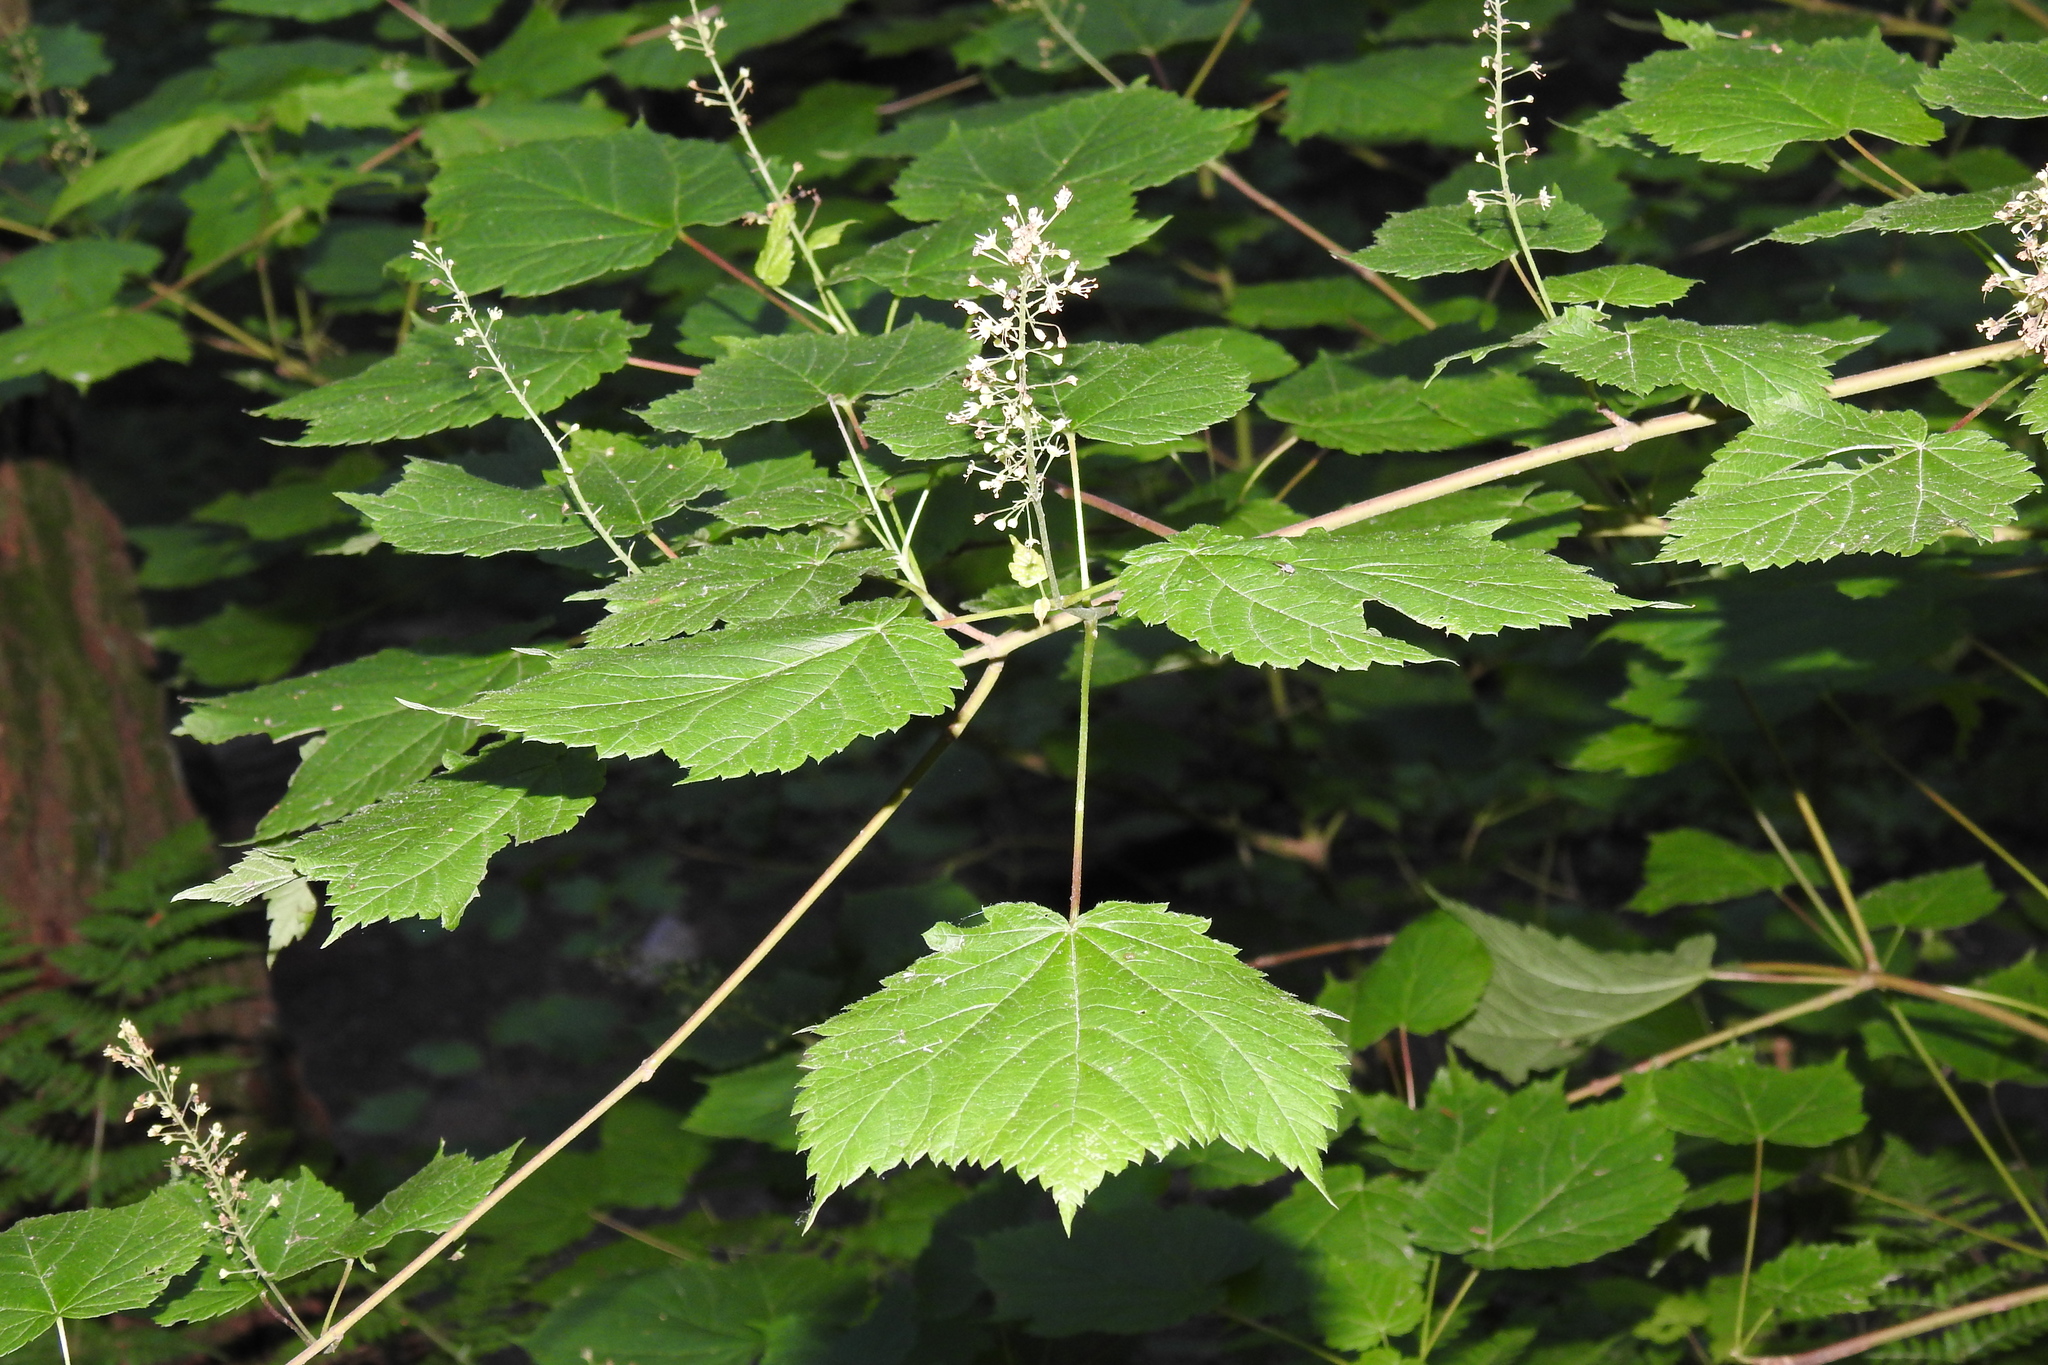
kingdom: Plantae
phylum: Tracheophyta
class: Magnoliopsida
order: Sapindales
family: Sapindaceae
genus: Acer
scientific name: Acer spicatum
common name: Mountain maple
